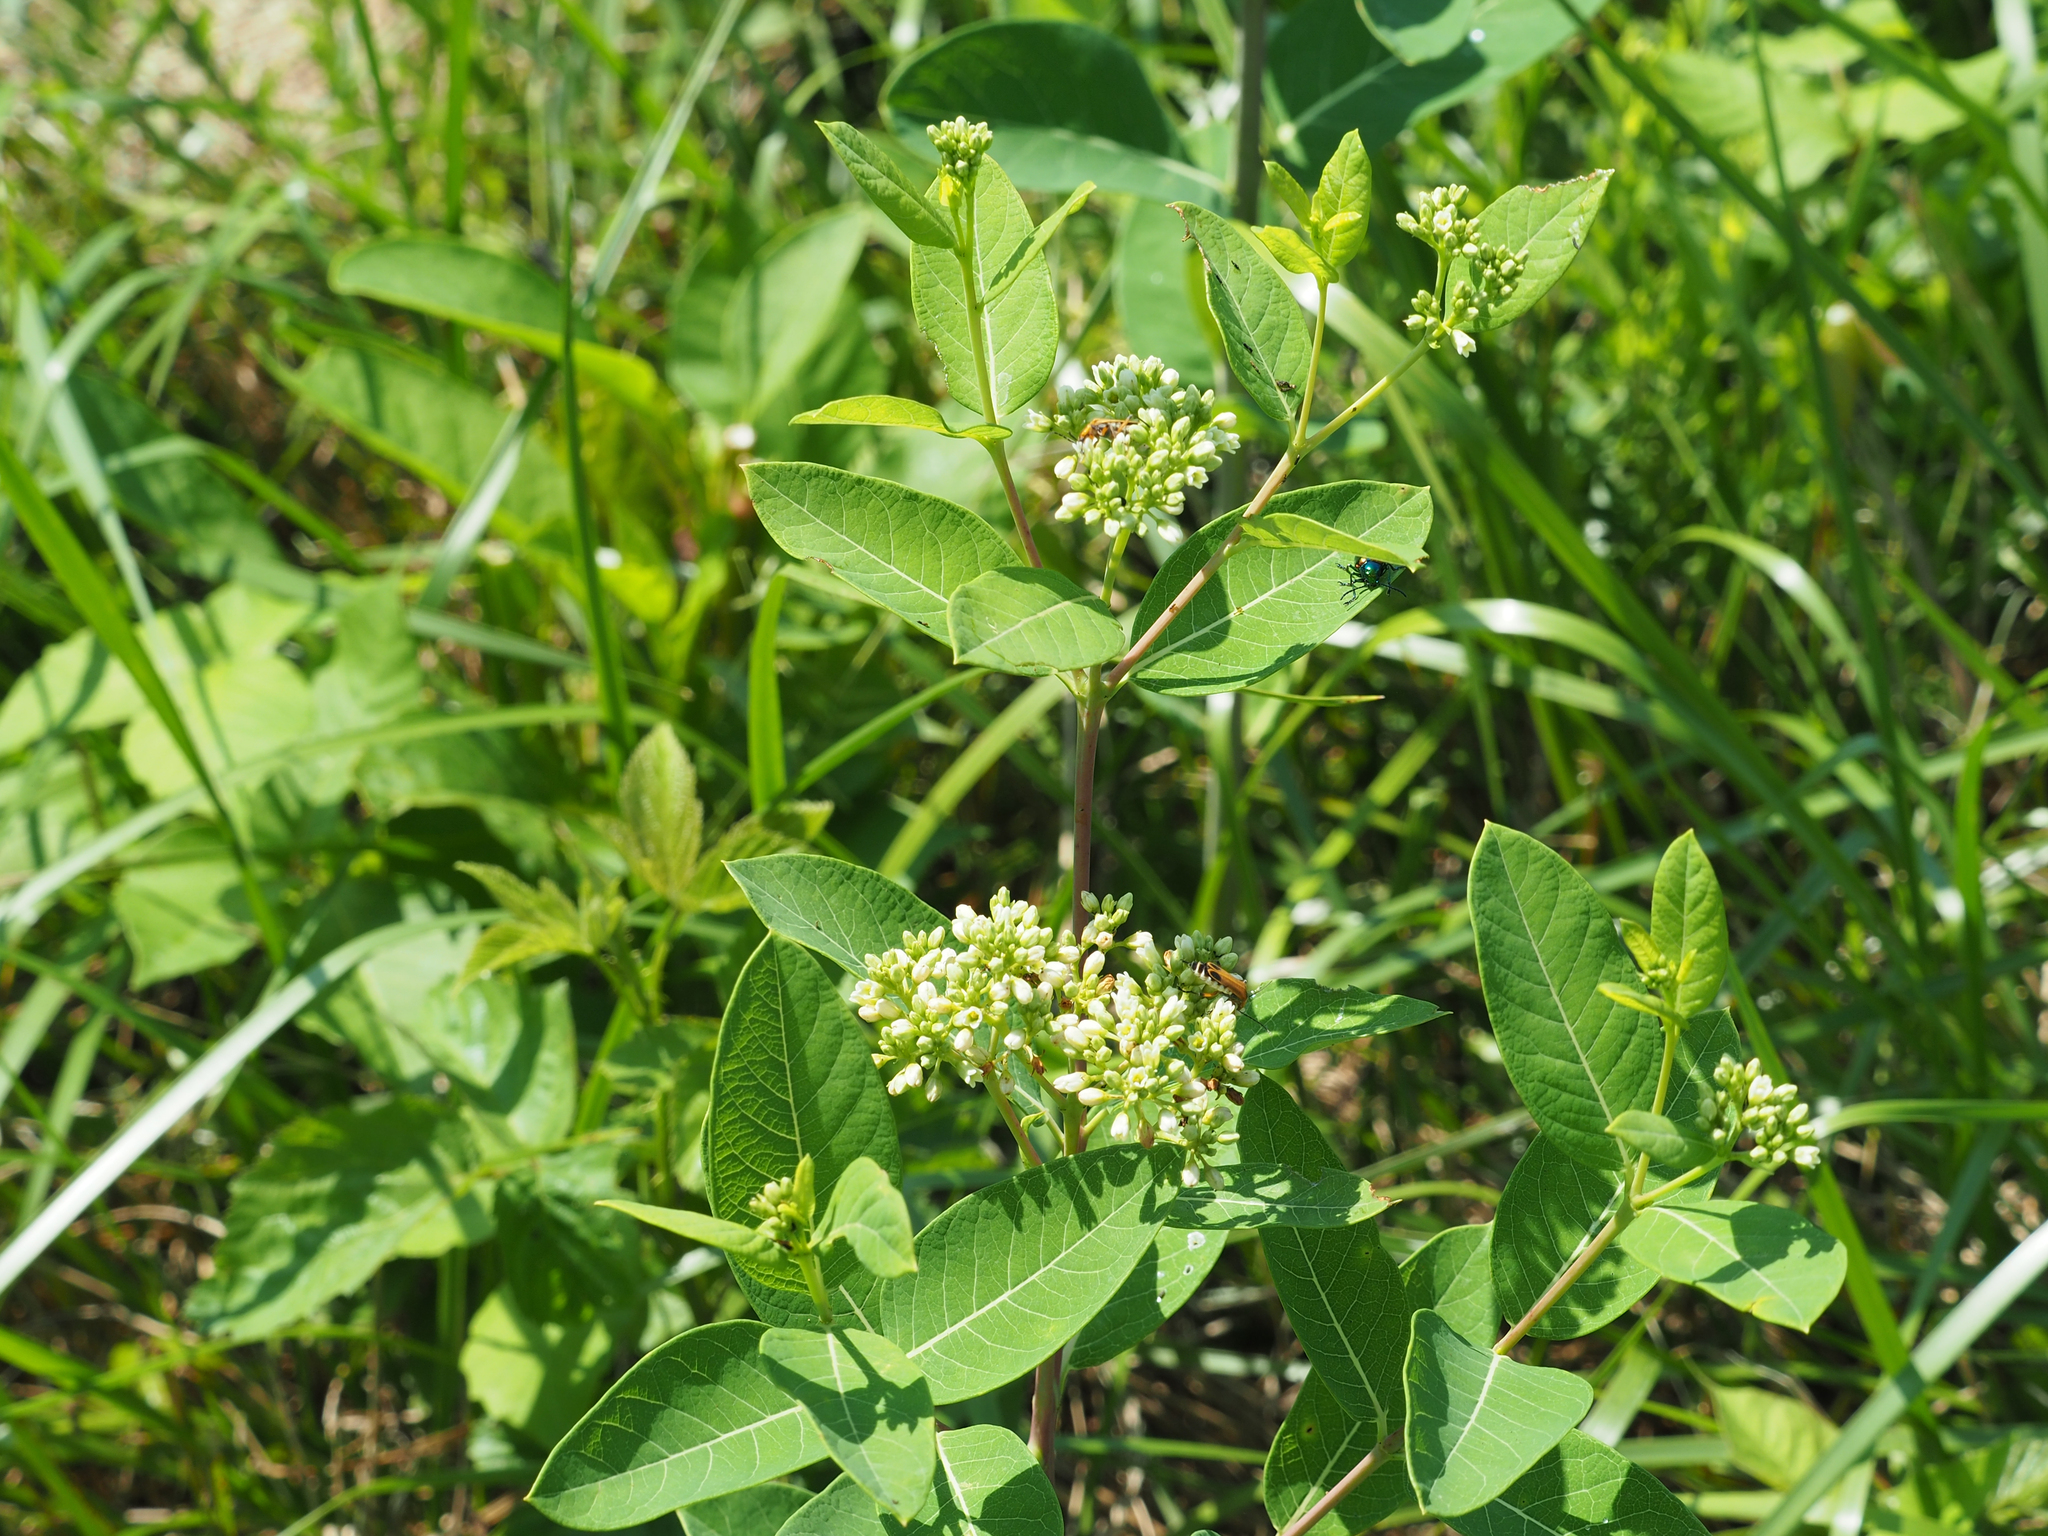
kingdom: Plantae
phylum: Tracheophyta
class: Magnoliopsida
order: Gentianales
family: Apocynaceae
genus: Apocynum
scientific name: Apocynum cannabinum
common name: Hemp dogbane
